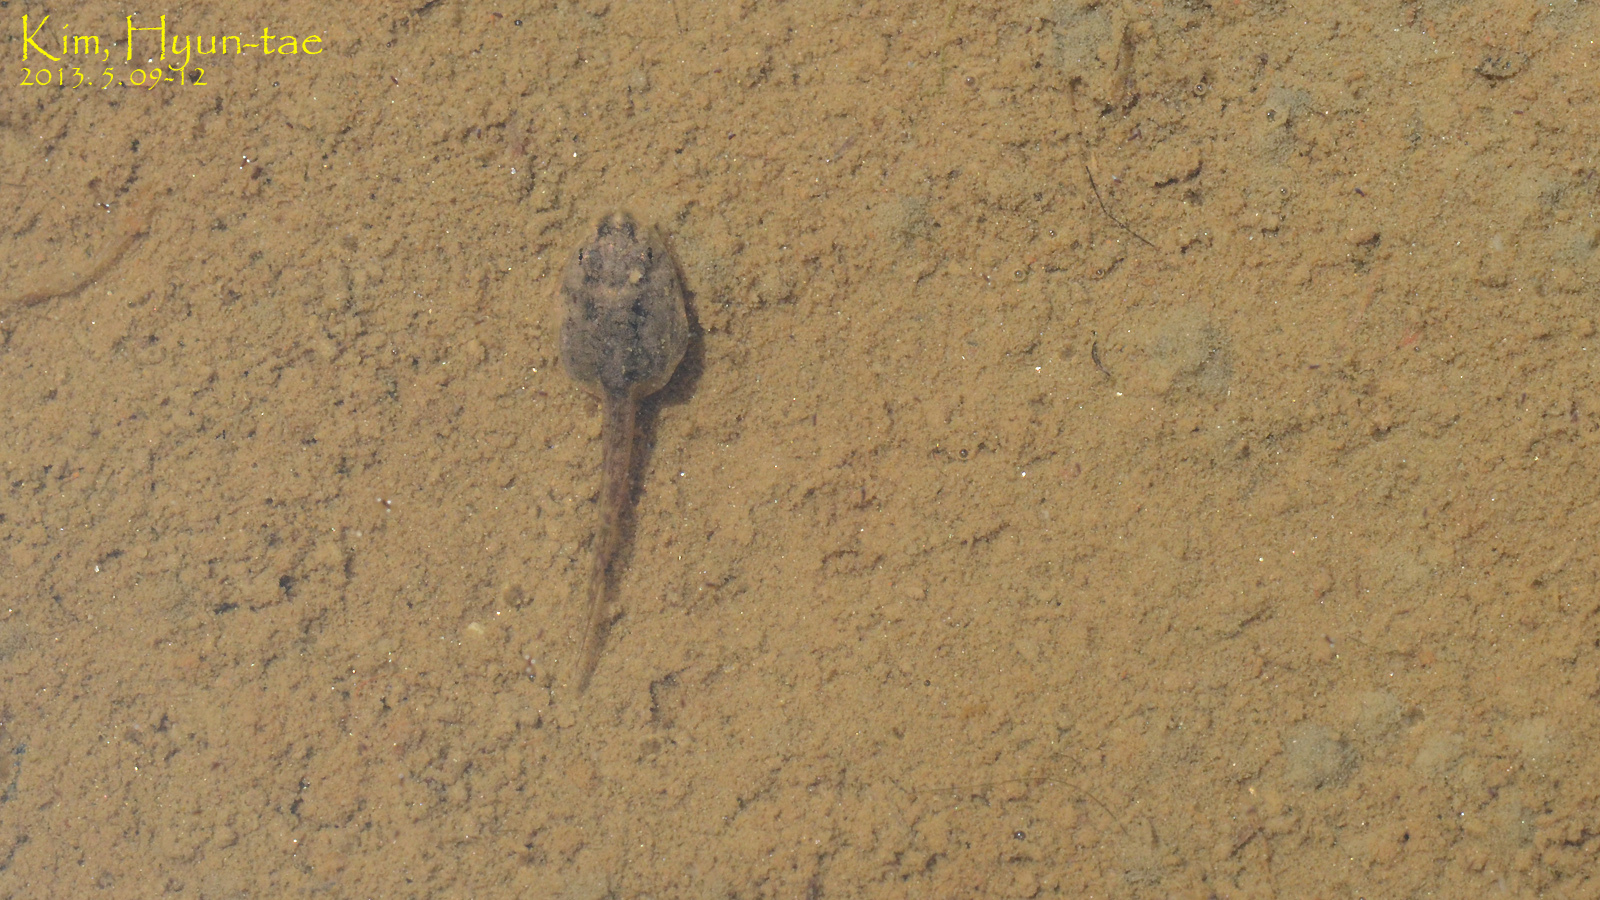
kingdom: Animalia
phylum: Chordata
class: Amphibia
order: Anura
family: Ranidae
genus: Glandirana
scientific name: Glandirana emeljanovi
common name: Northeast china rough-skinned frog
